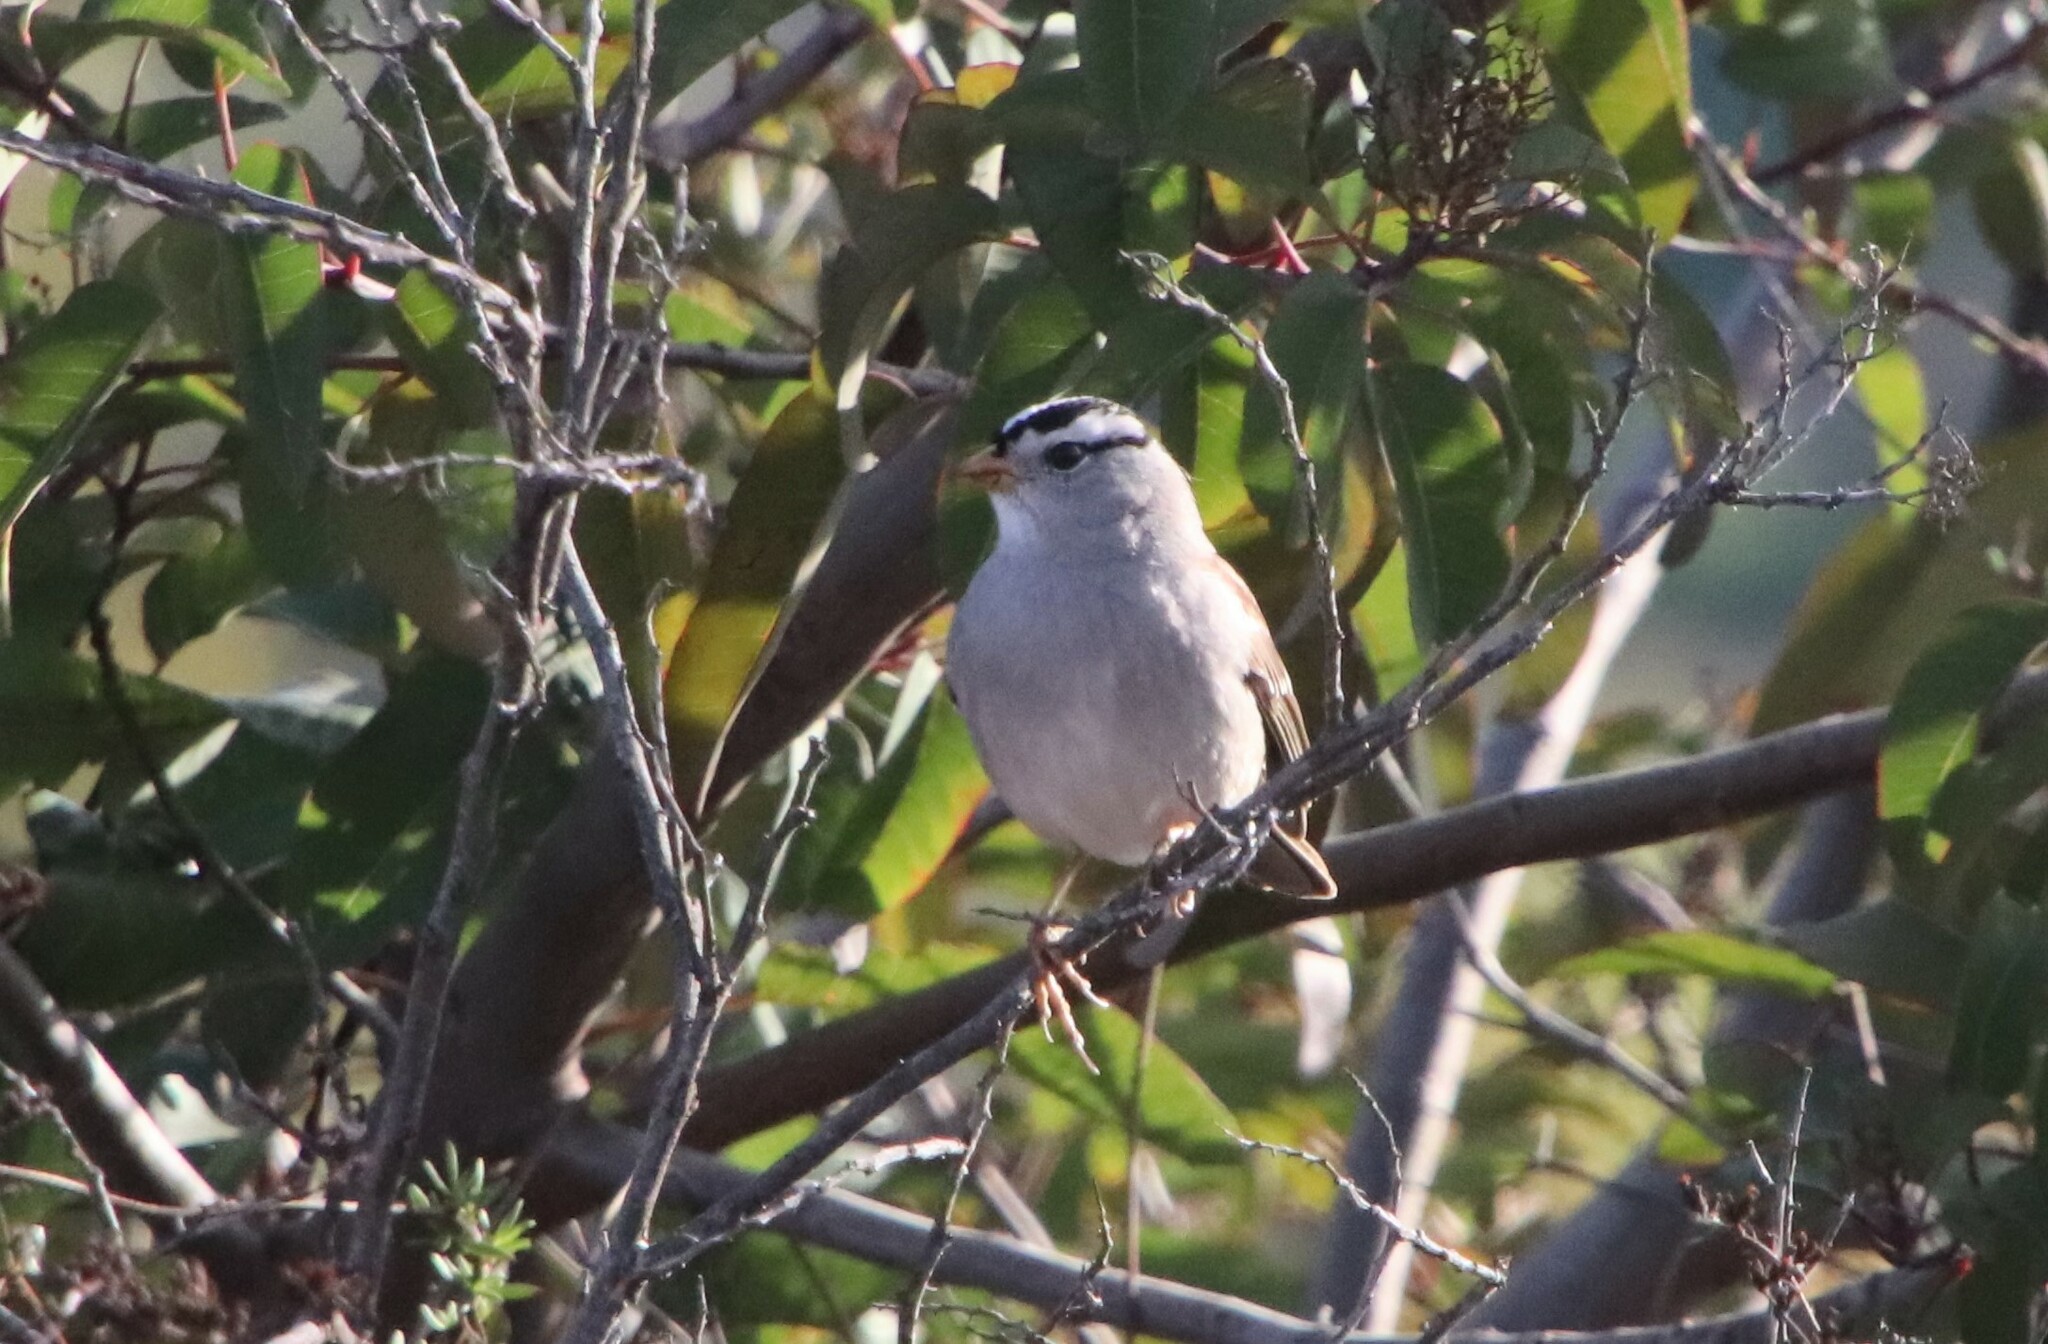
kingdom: Animalia
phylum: Chordata
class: Aves
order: Passeriformes
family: Passerellidae
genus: Zonotrichia
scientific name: Zonotrichia leucophrys
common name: White-crowned sparrow
